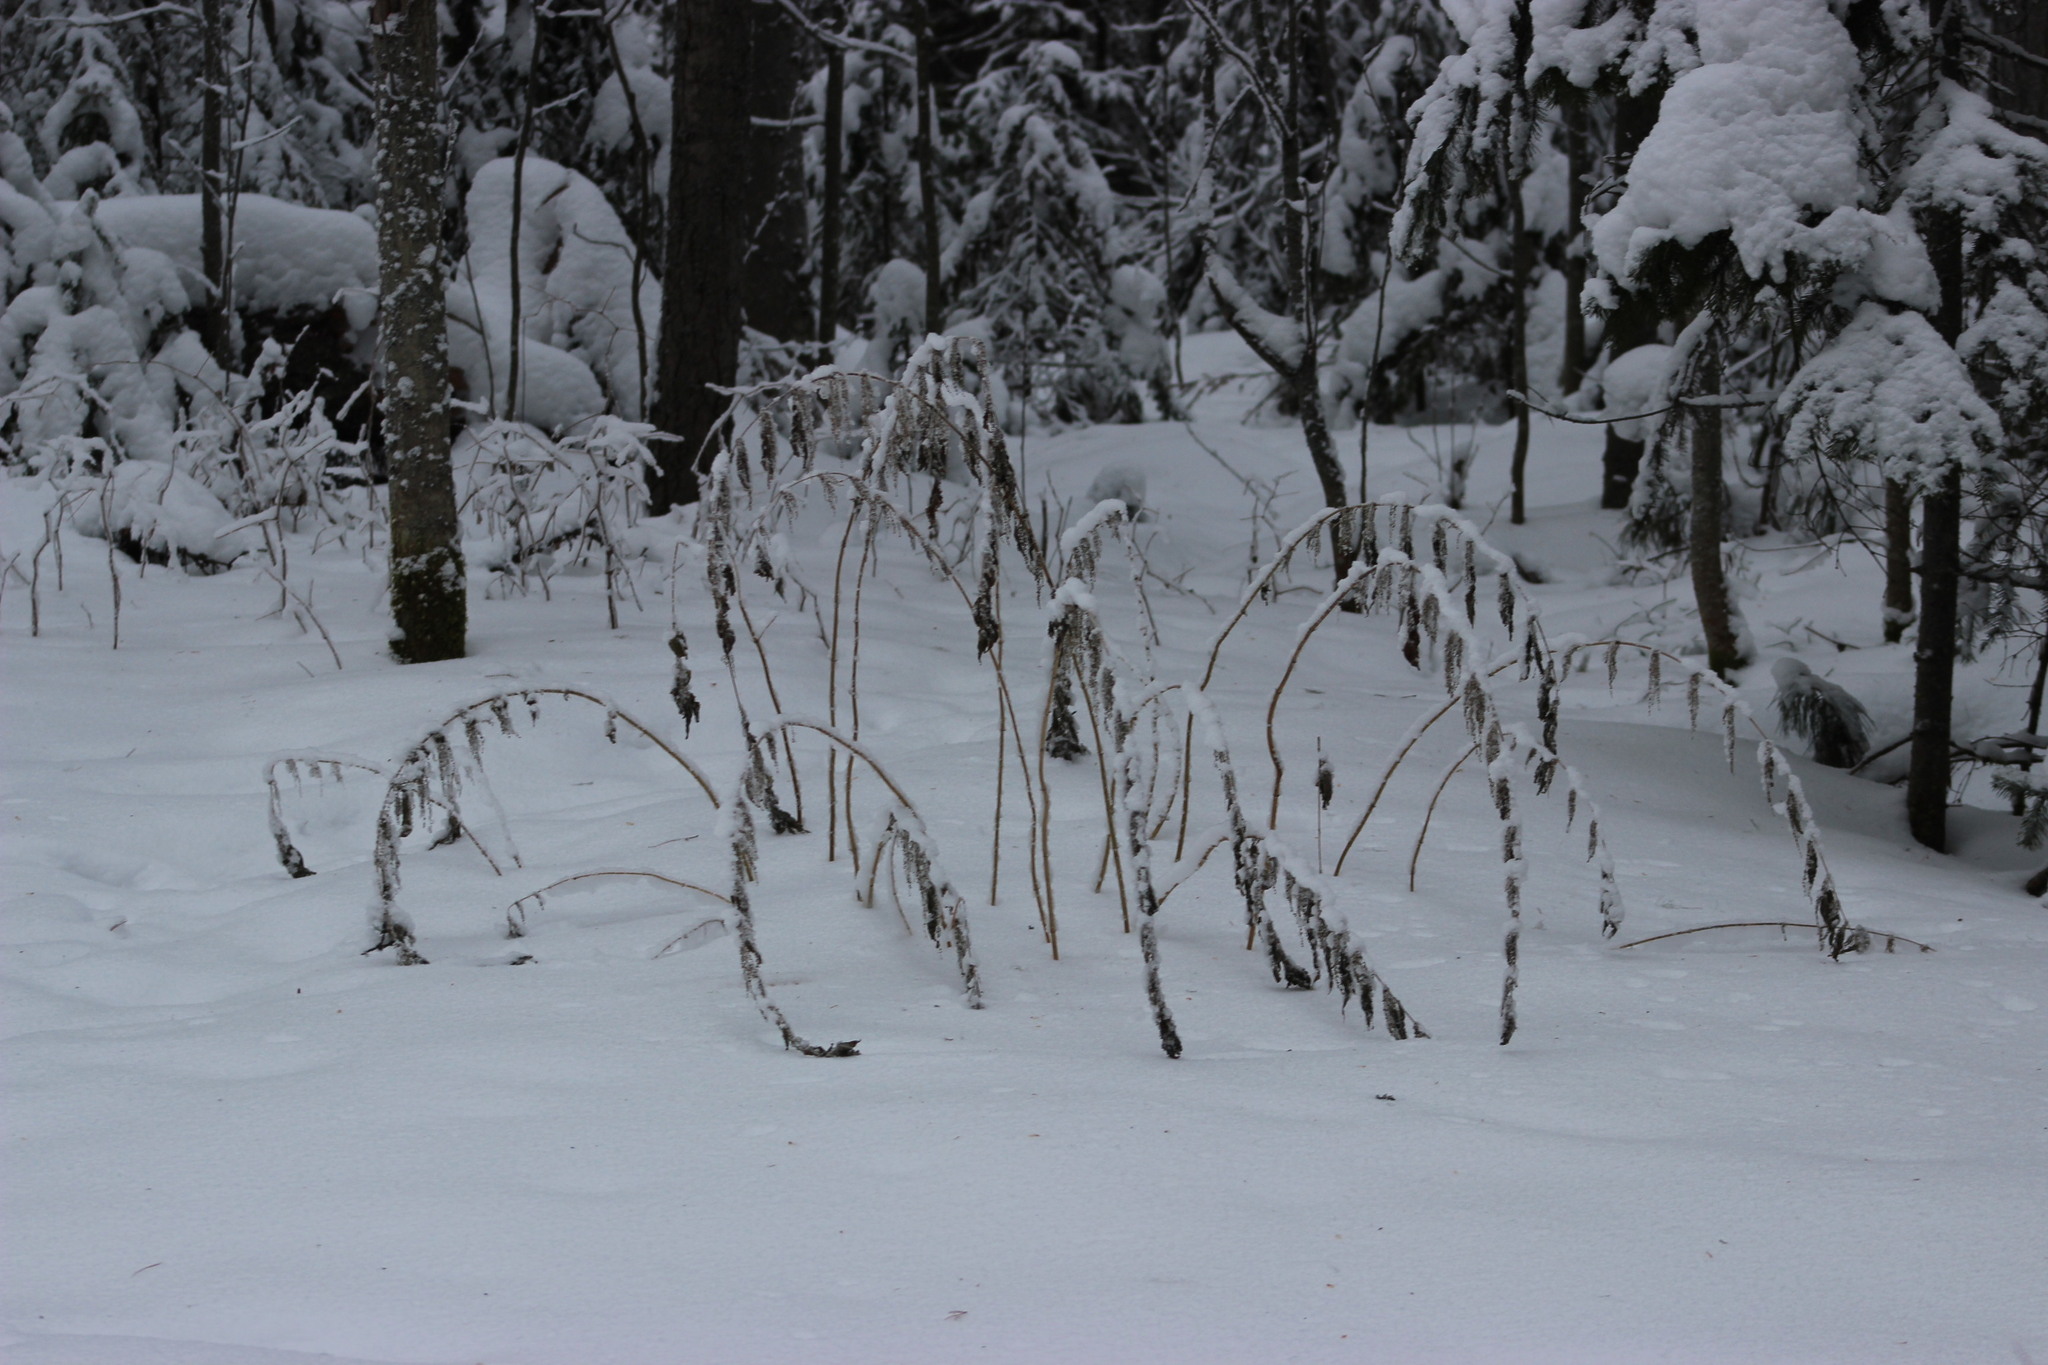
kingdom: Plantae
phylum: Tracheophyta
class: Magnoliopsida
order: Rosales
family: Urticaceae
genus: Urtica
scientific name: Urtica dioica
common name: Common nettle
